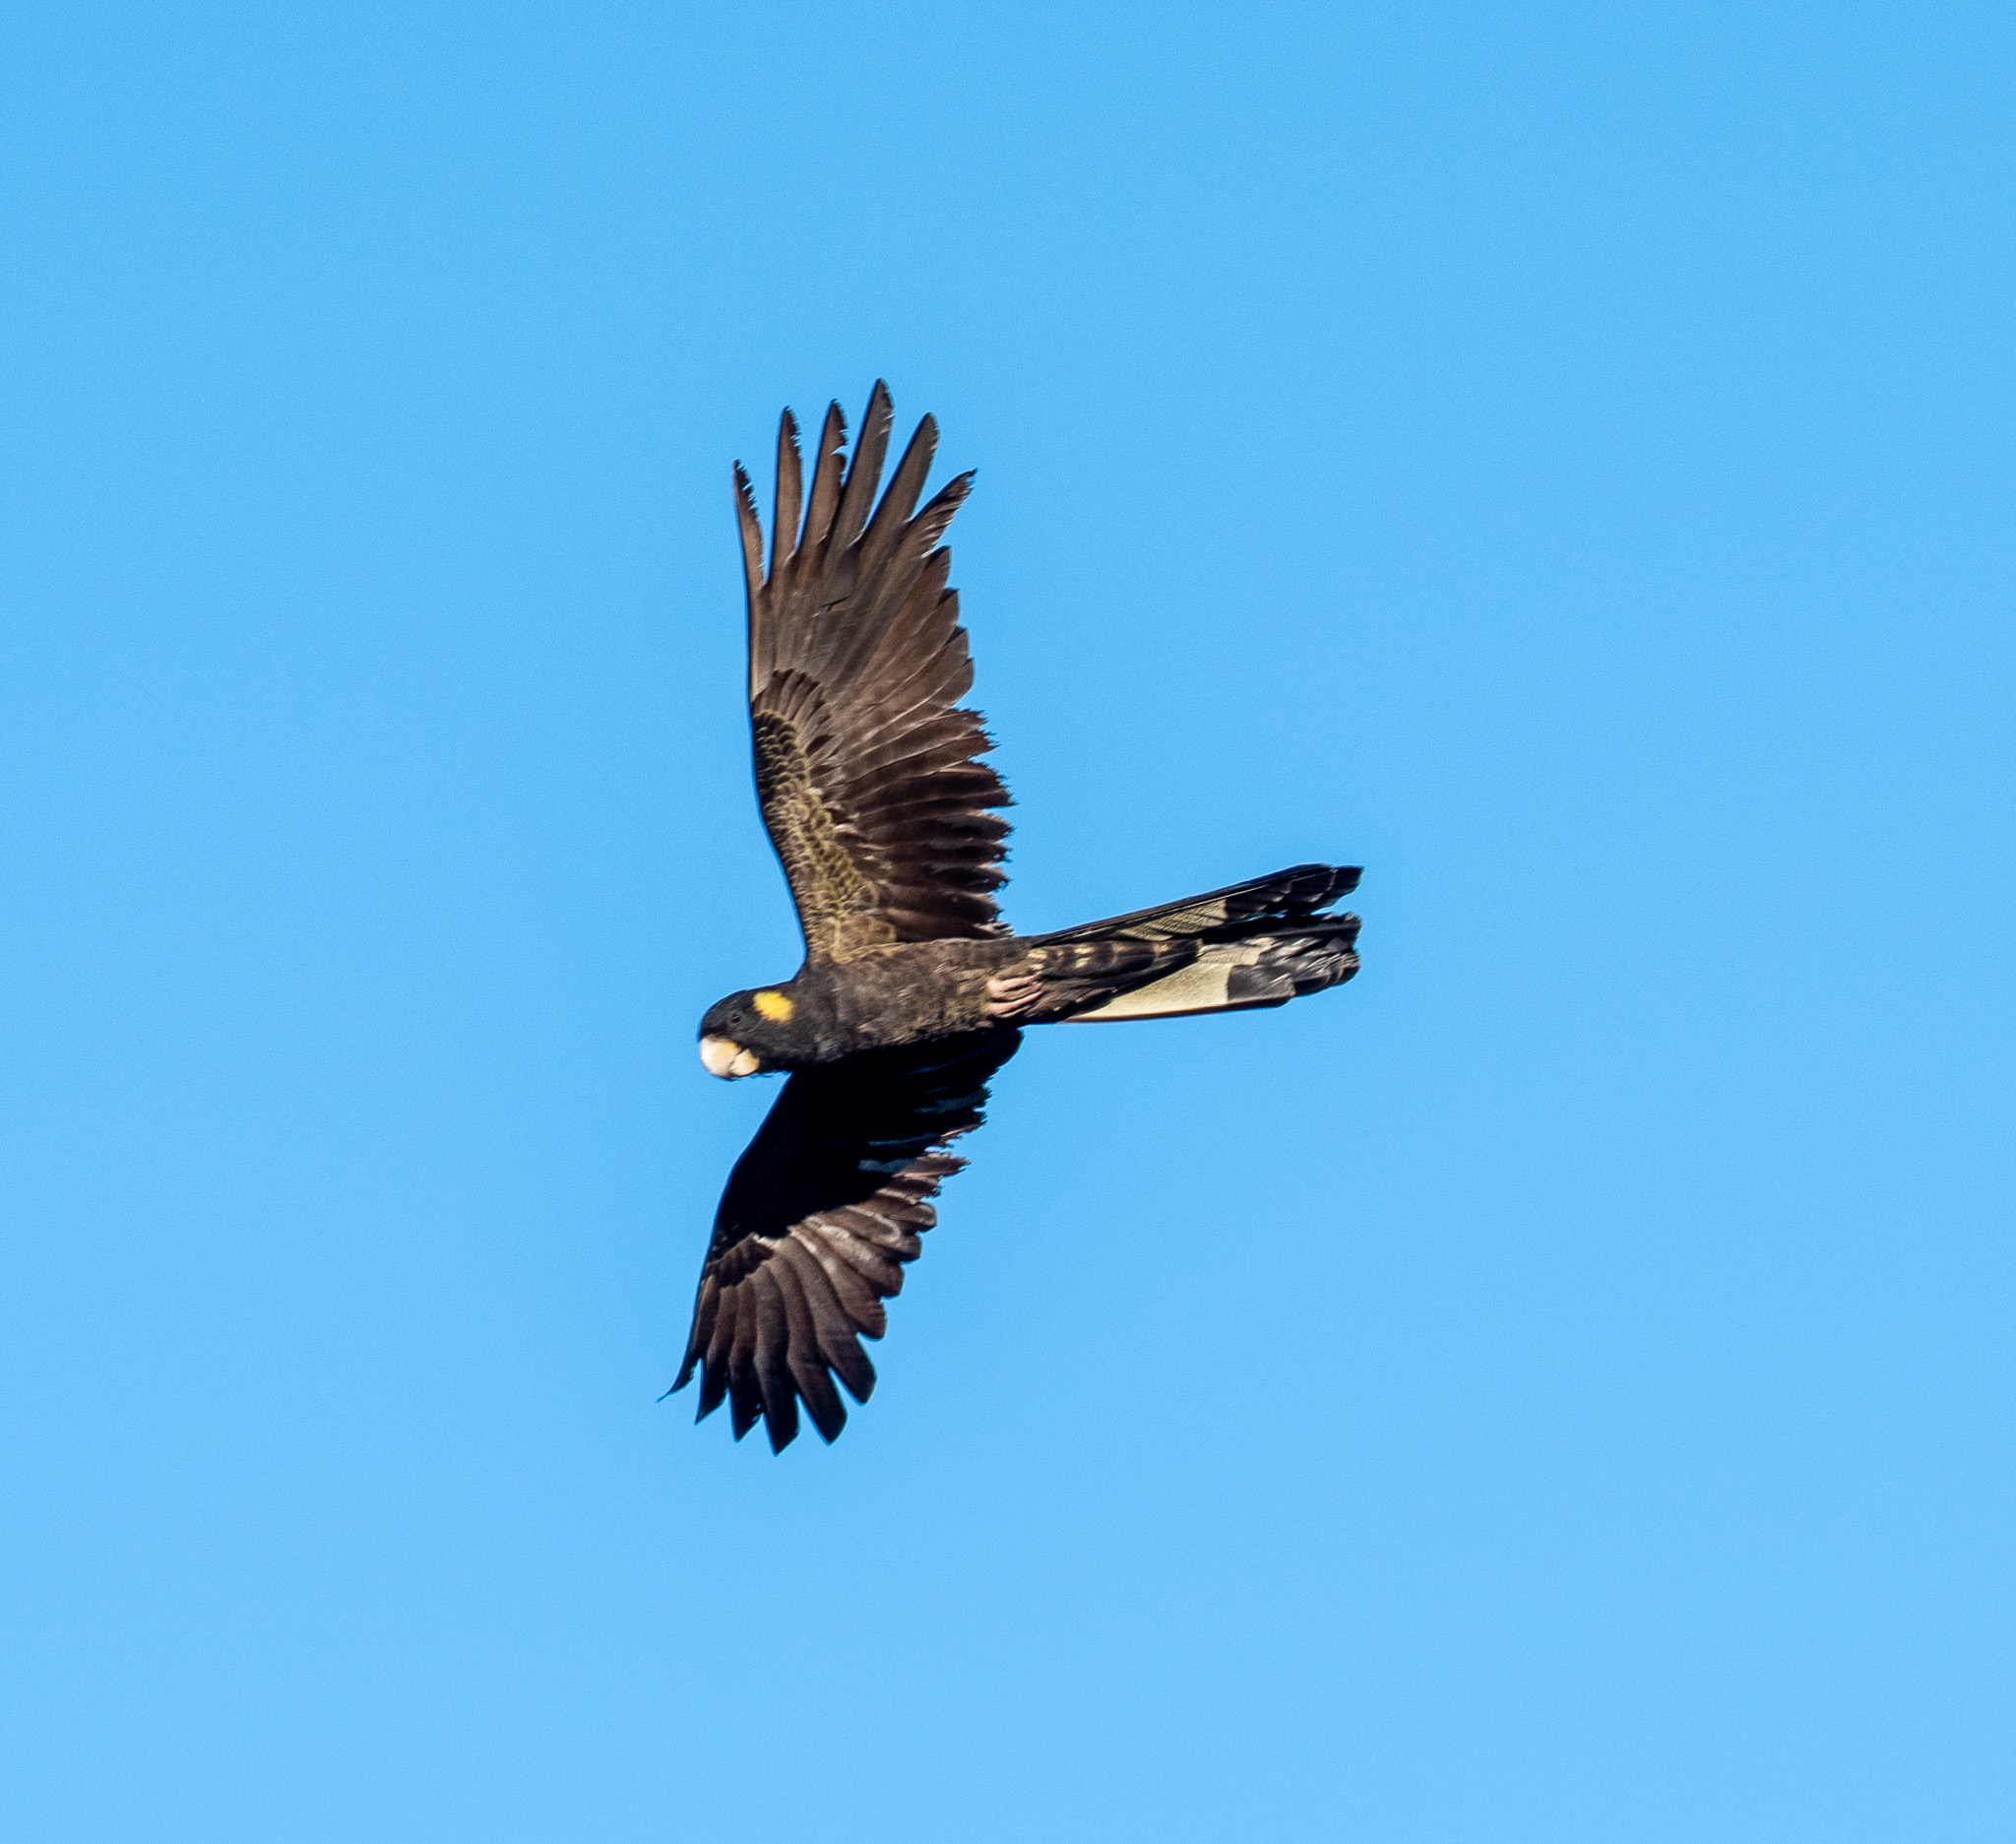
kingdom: Animalia
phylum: Chordata
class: Aves
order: Psittaciformes
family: Cacatuidae
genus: Zanda
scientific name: Zanda funerea
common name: Yellow-tailed black-cockatoo
